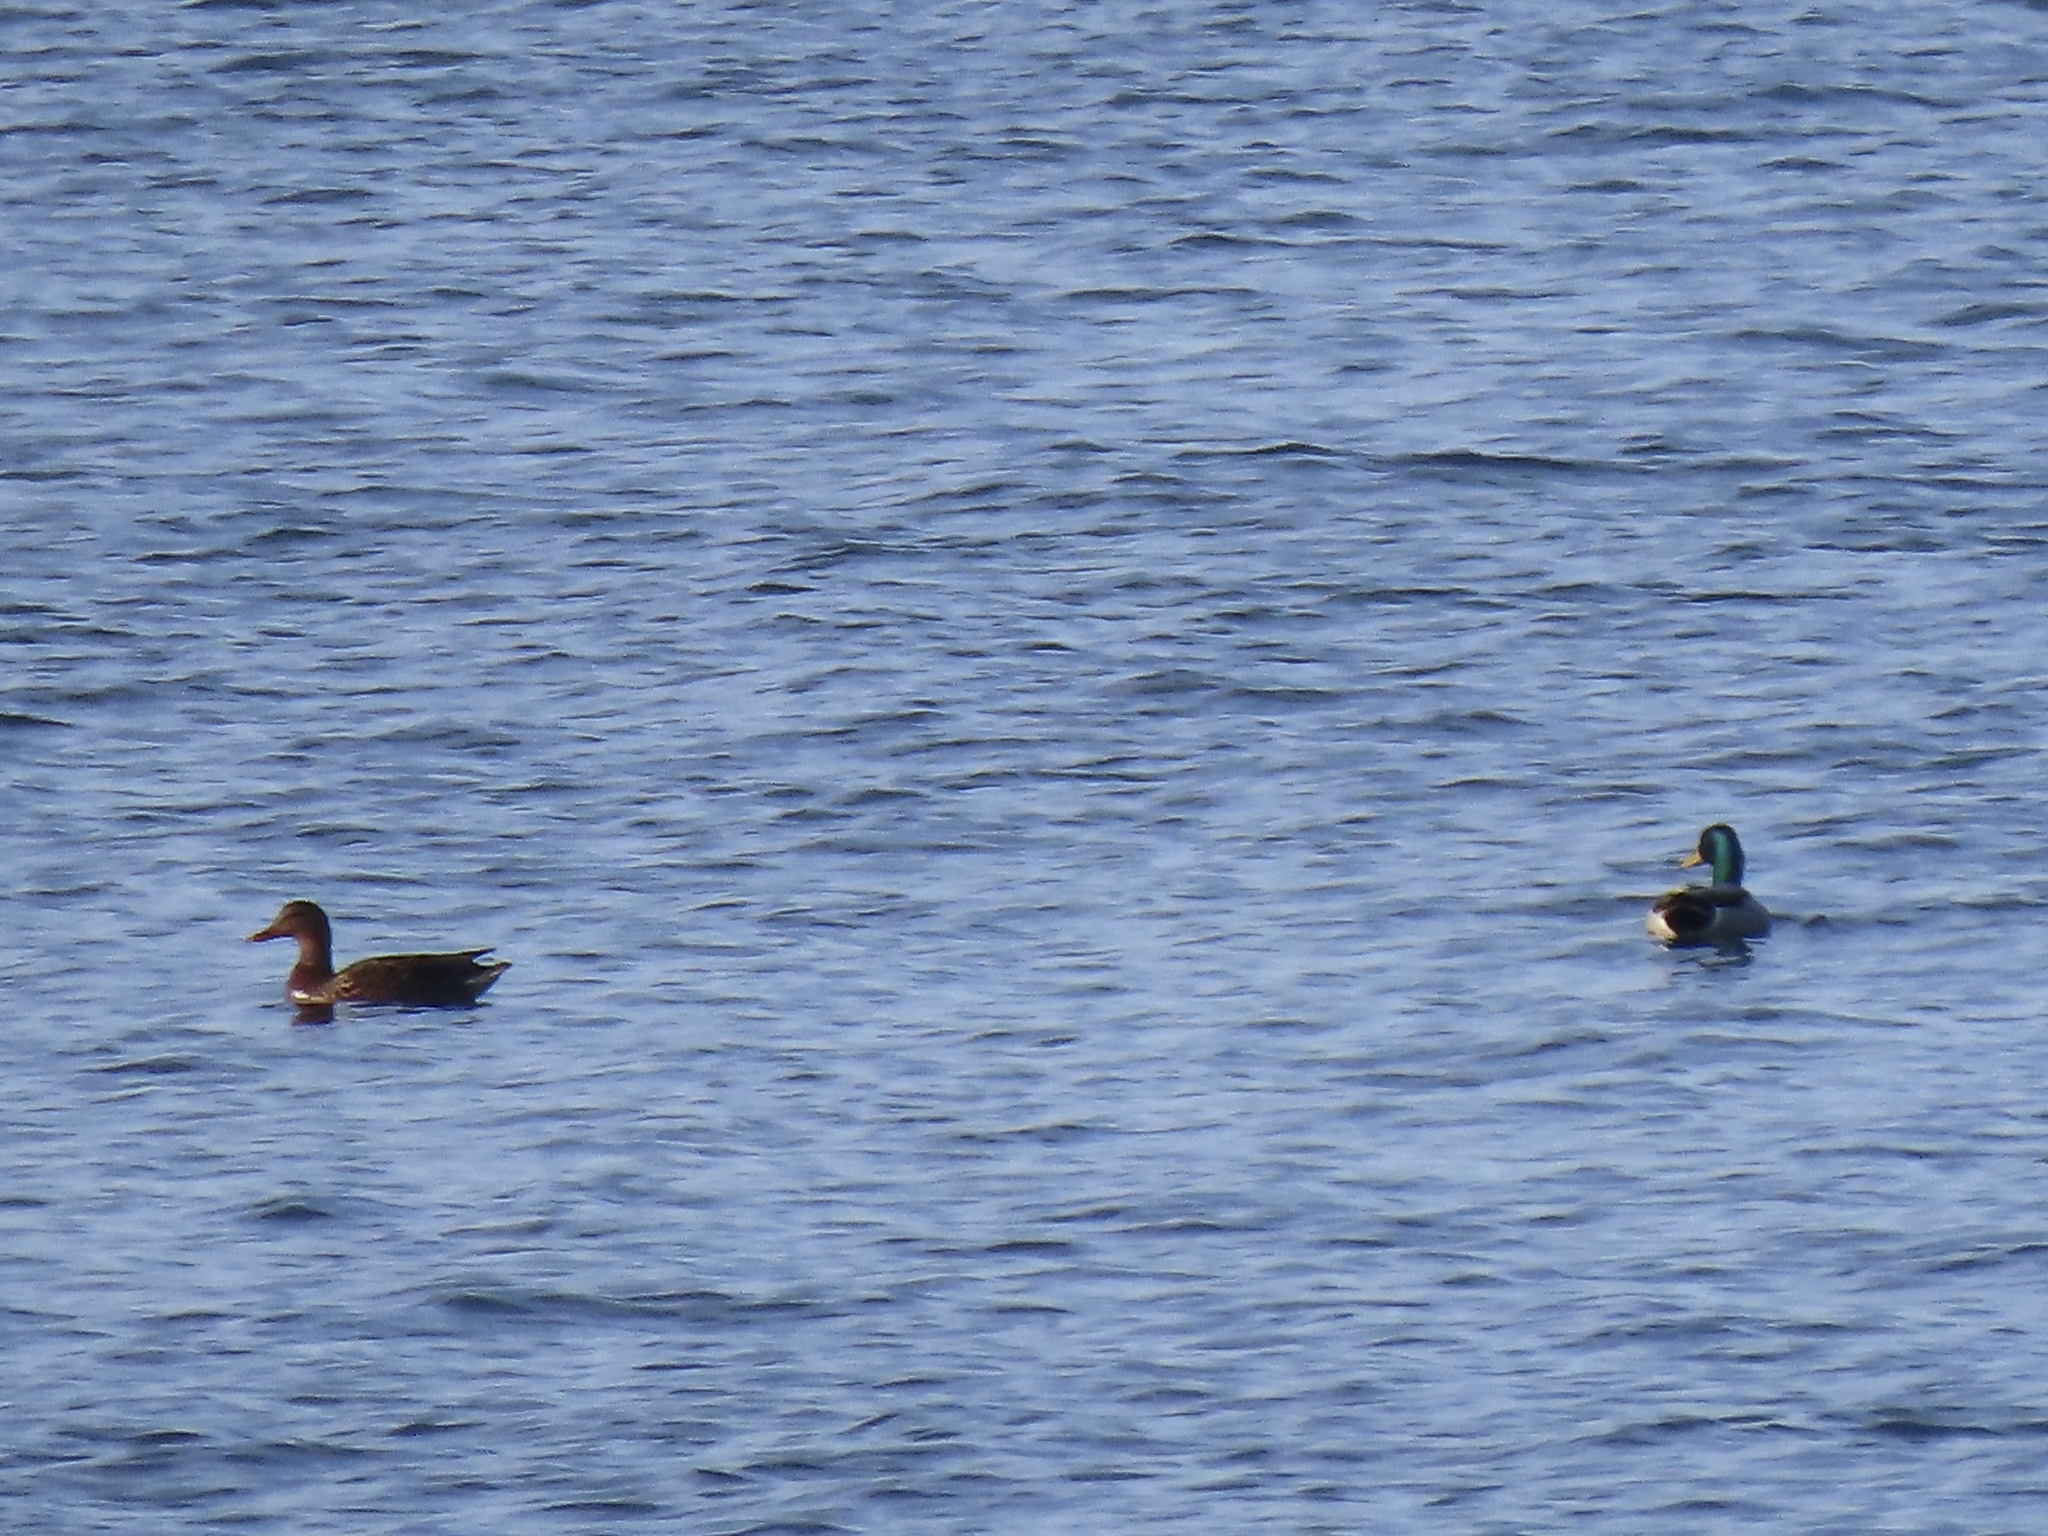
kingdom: Animalia
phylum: Chordata
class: Aves
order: Anseriformes
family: Anatidae
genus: Anas
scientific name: Anas platyrhynchos
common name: Mallard
